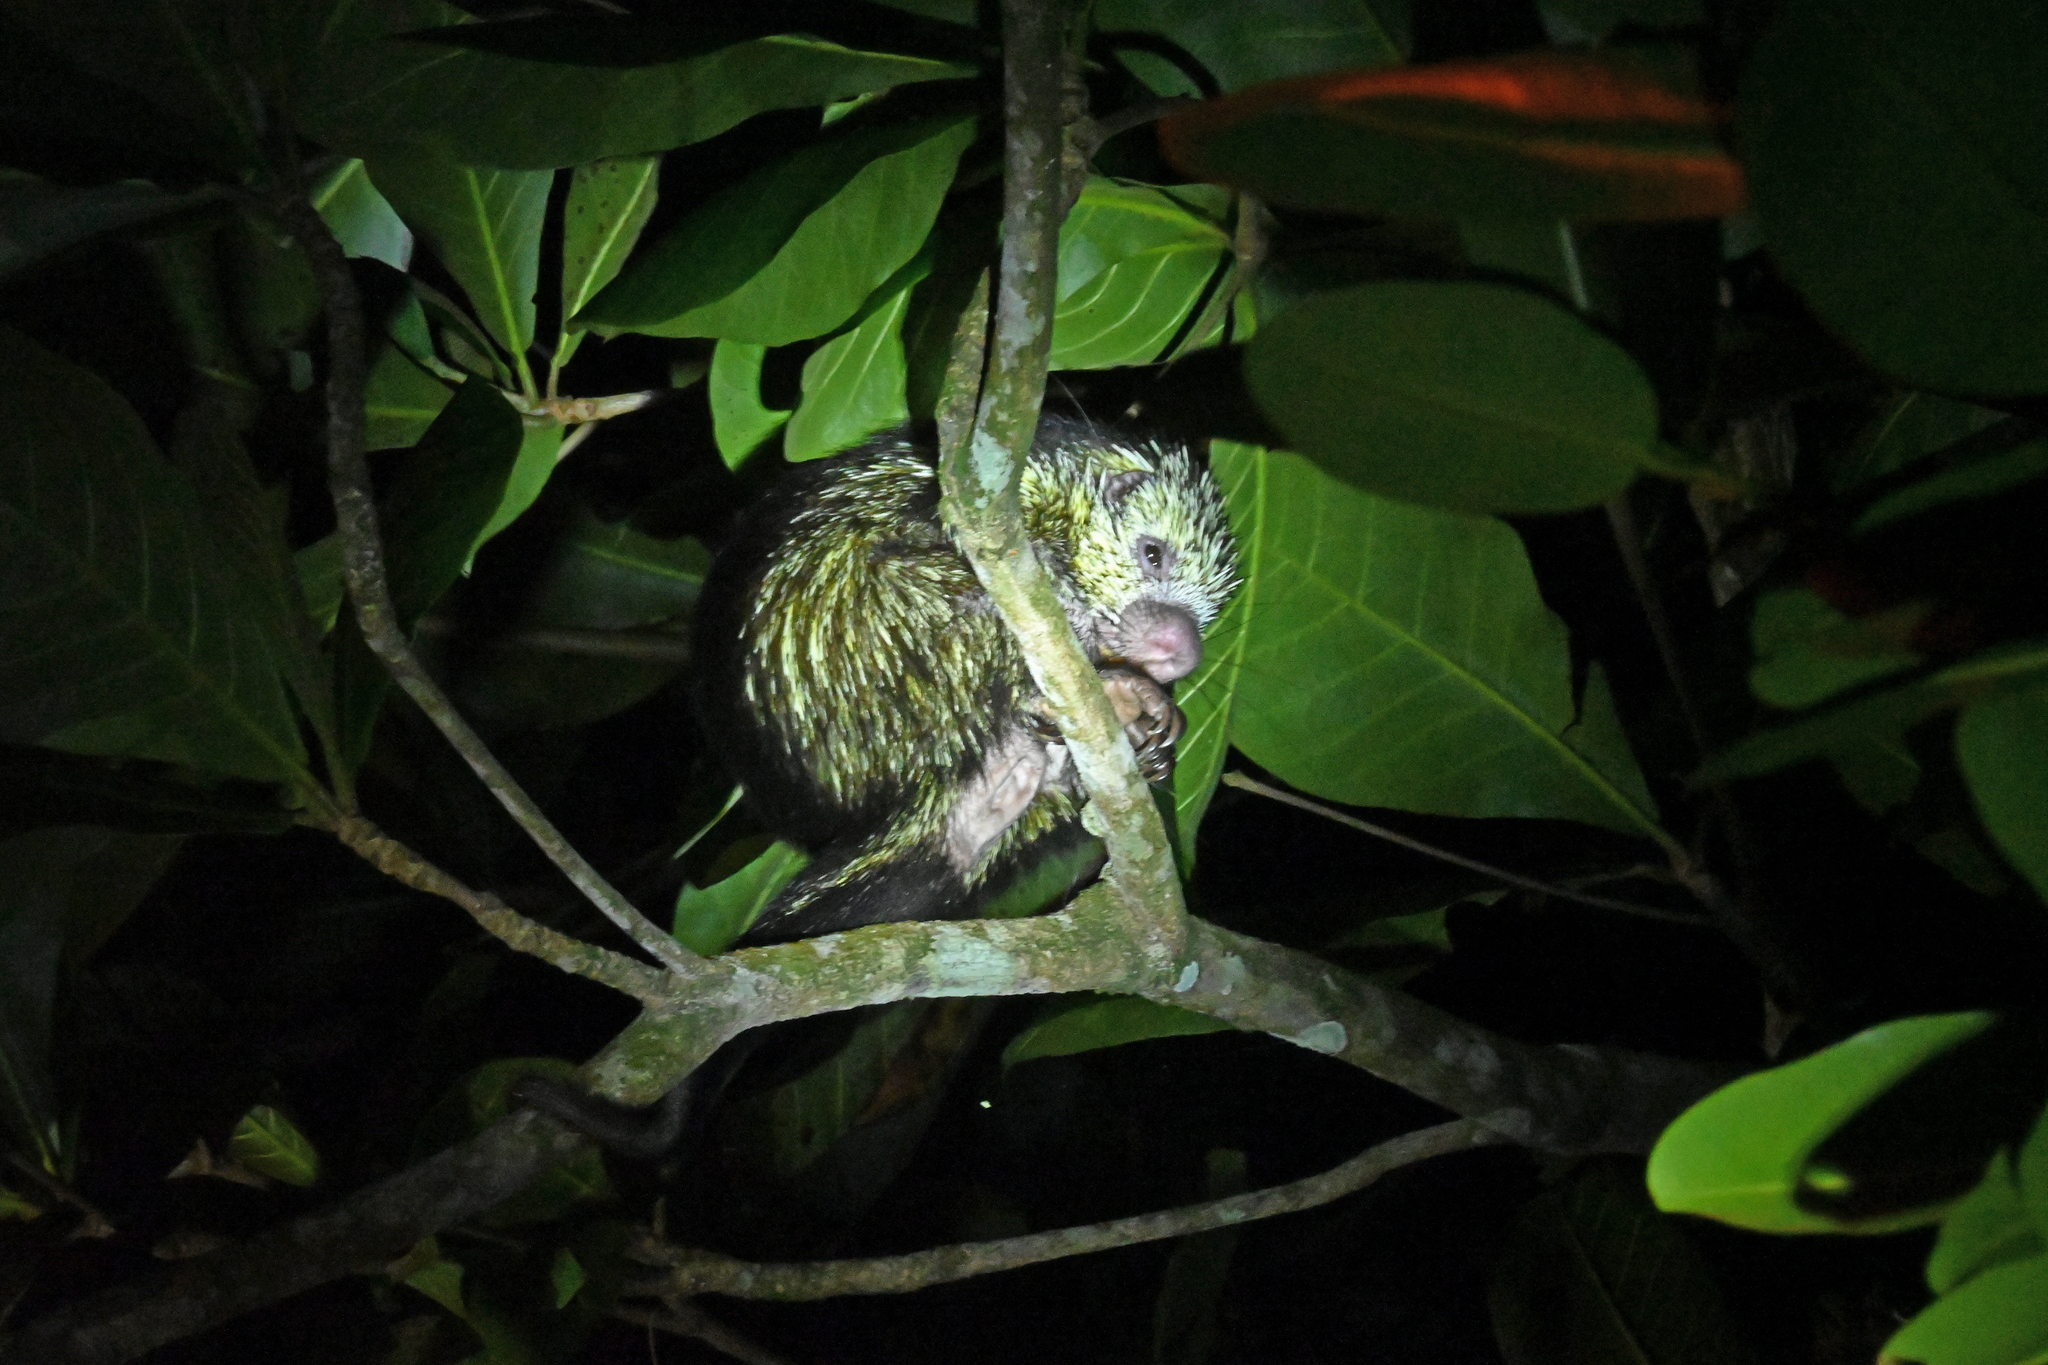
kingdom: Animalia
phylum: Chordata
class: Mammalia
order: Rodentia
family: Erethizontidae
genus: Sphiggurus
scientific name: Sphiggurus mexicanus
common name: Mexican hairy dwarf porcupine
